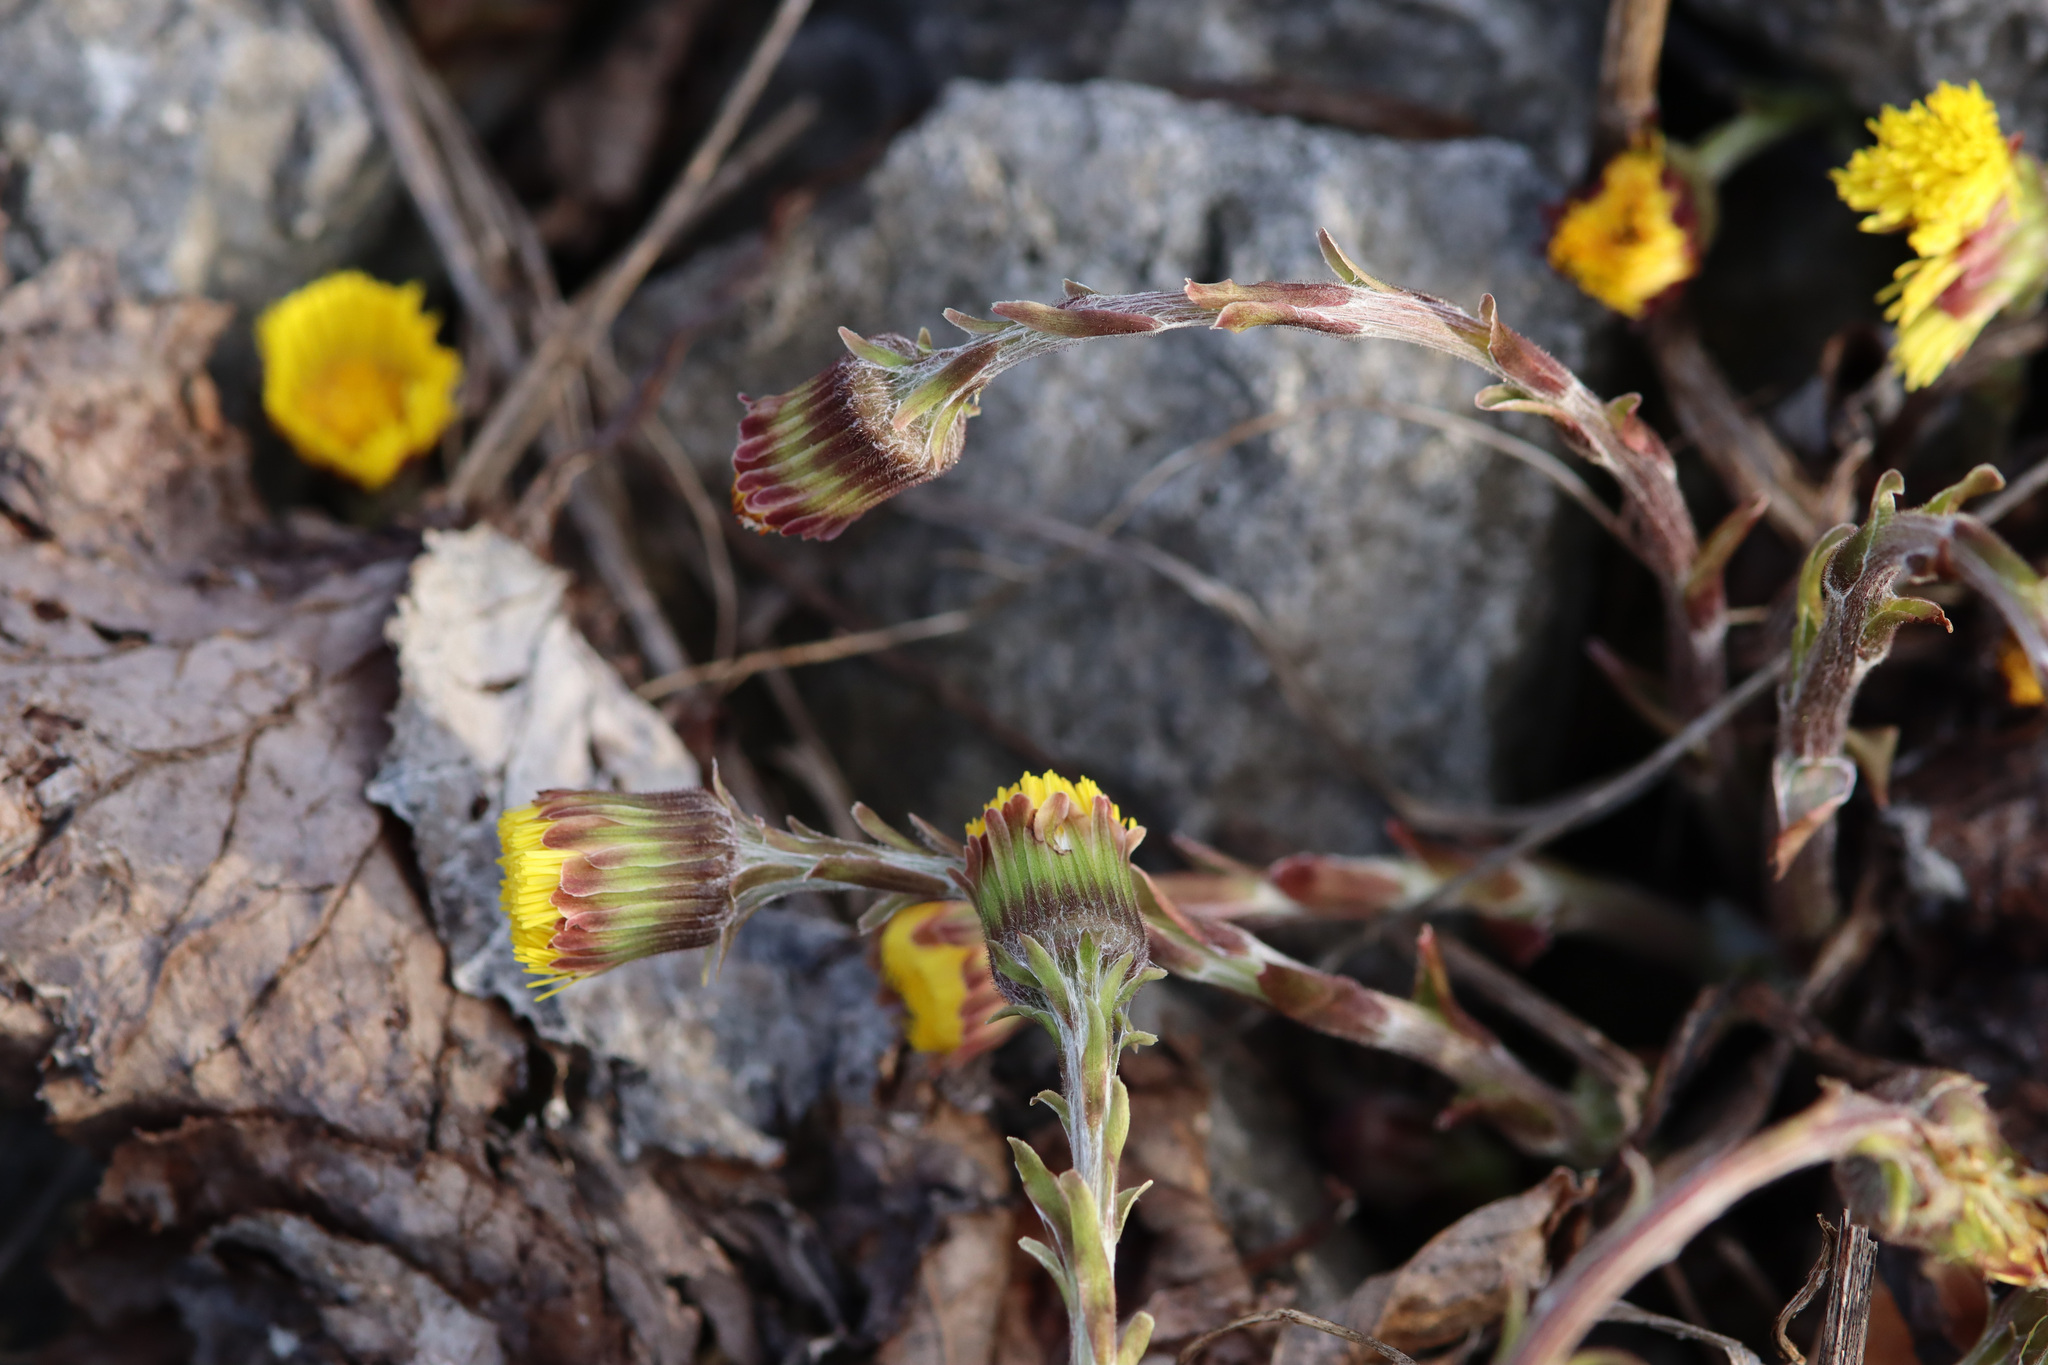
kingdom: Plantae
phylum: Tracheophyta
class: Magnoliopsida
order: Asterales
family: Asteraceae
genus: Tussilago
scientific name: Tussilago farfara
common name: Coltsfoot
